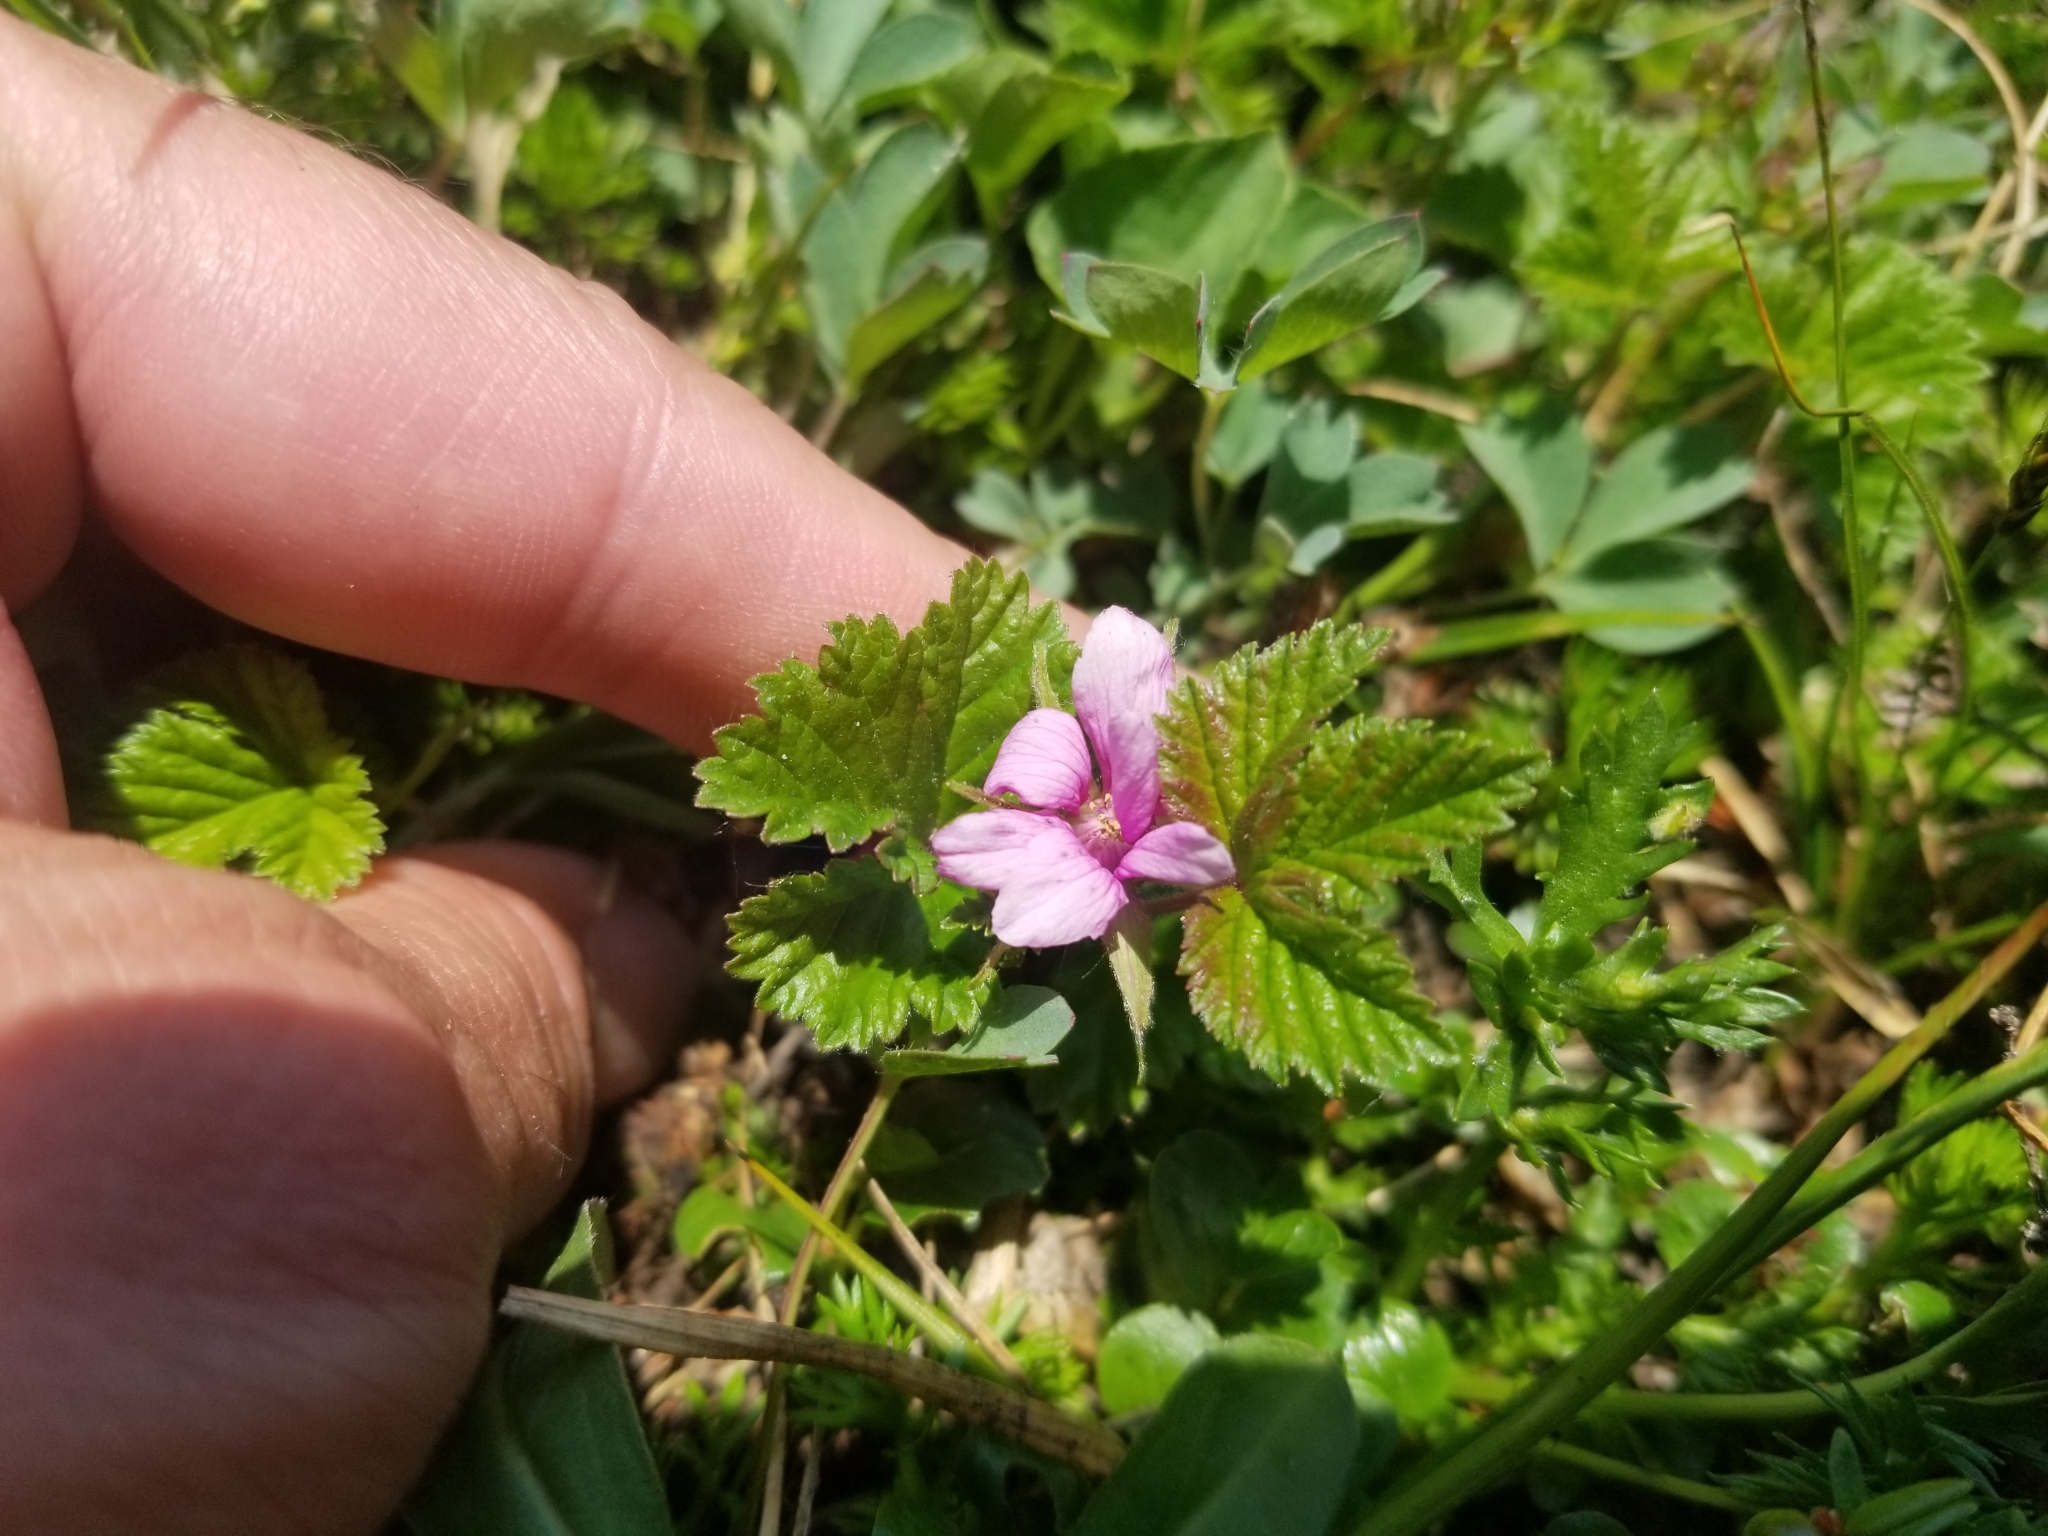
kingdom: Plantae
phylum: Tracheophyta
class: Magnoliopsida
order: Rosales
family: Rosaceae
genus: Rubus
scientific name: Rubus arcticus
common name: Arctic bramble
